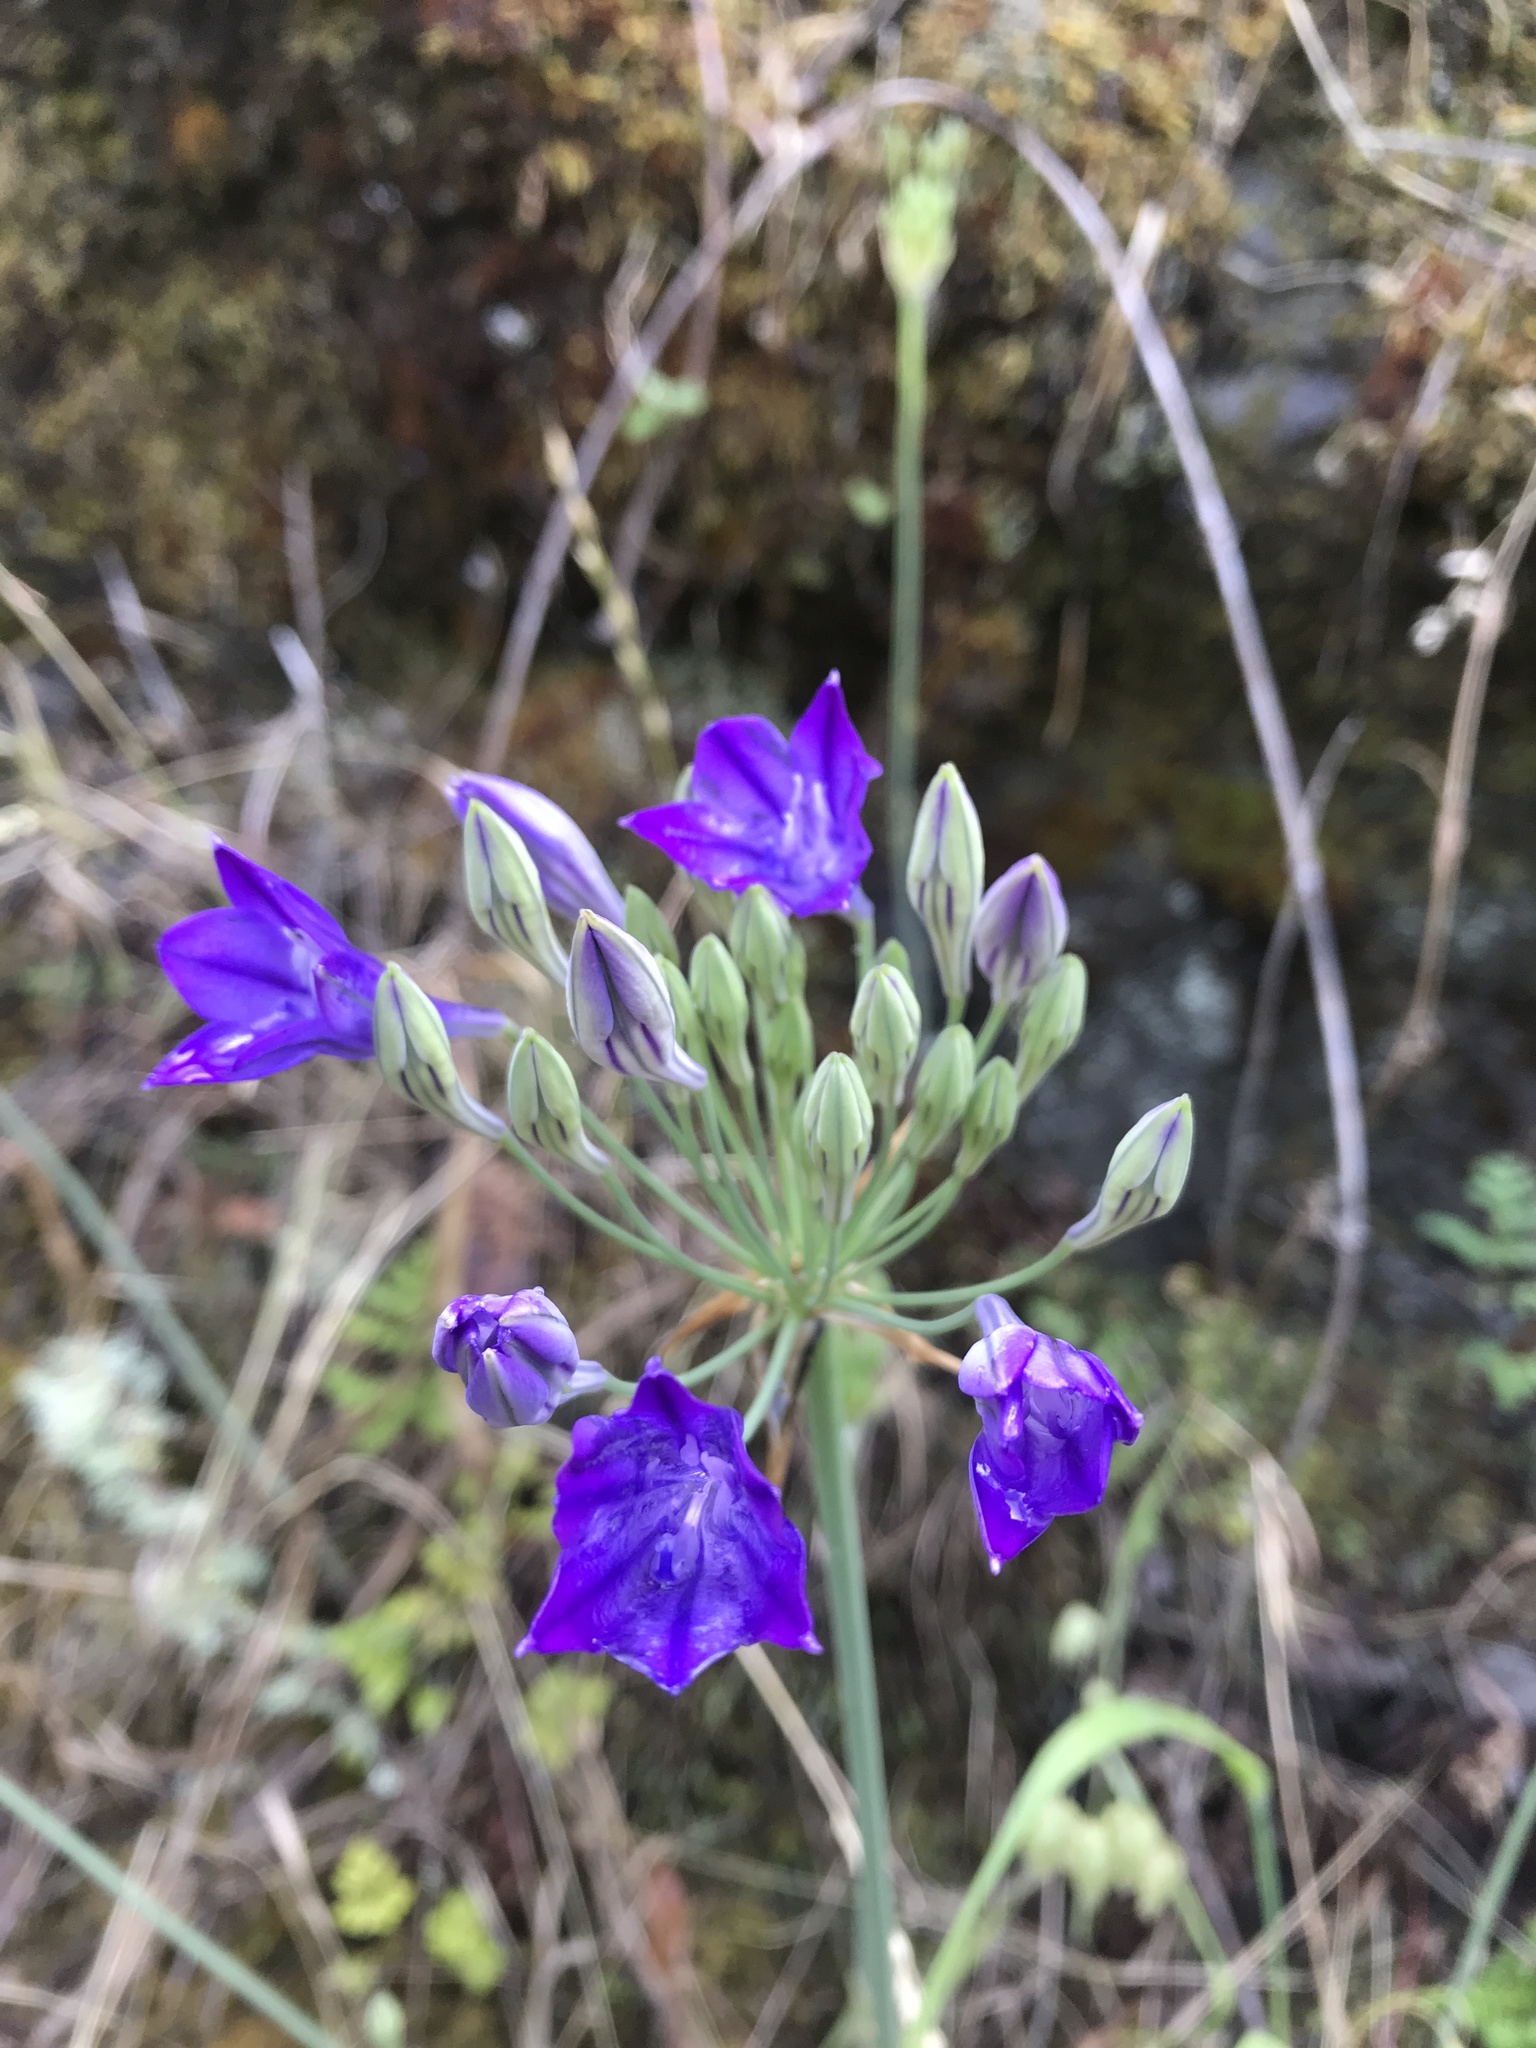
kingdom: Plantae
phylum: Tracheophyta
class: Liliopsida
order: Asparagales
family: Asparagaceae
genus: Triteleia
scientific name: Triteleia laxa
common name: Triplet-lily
